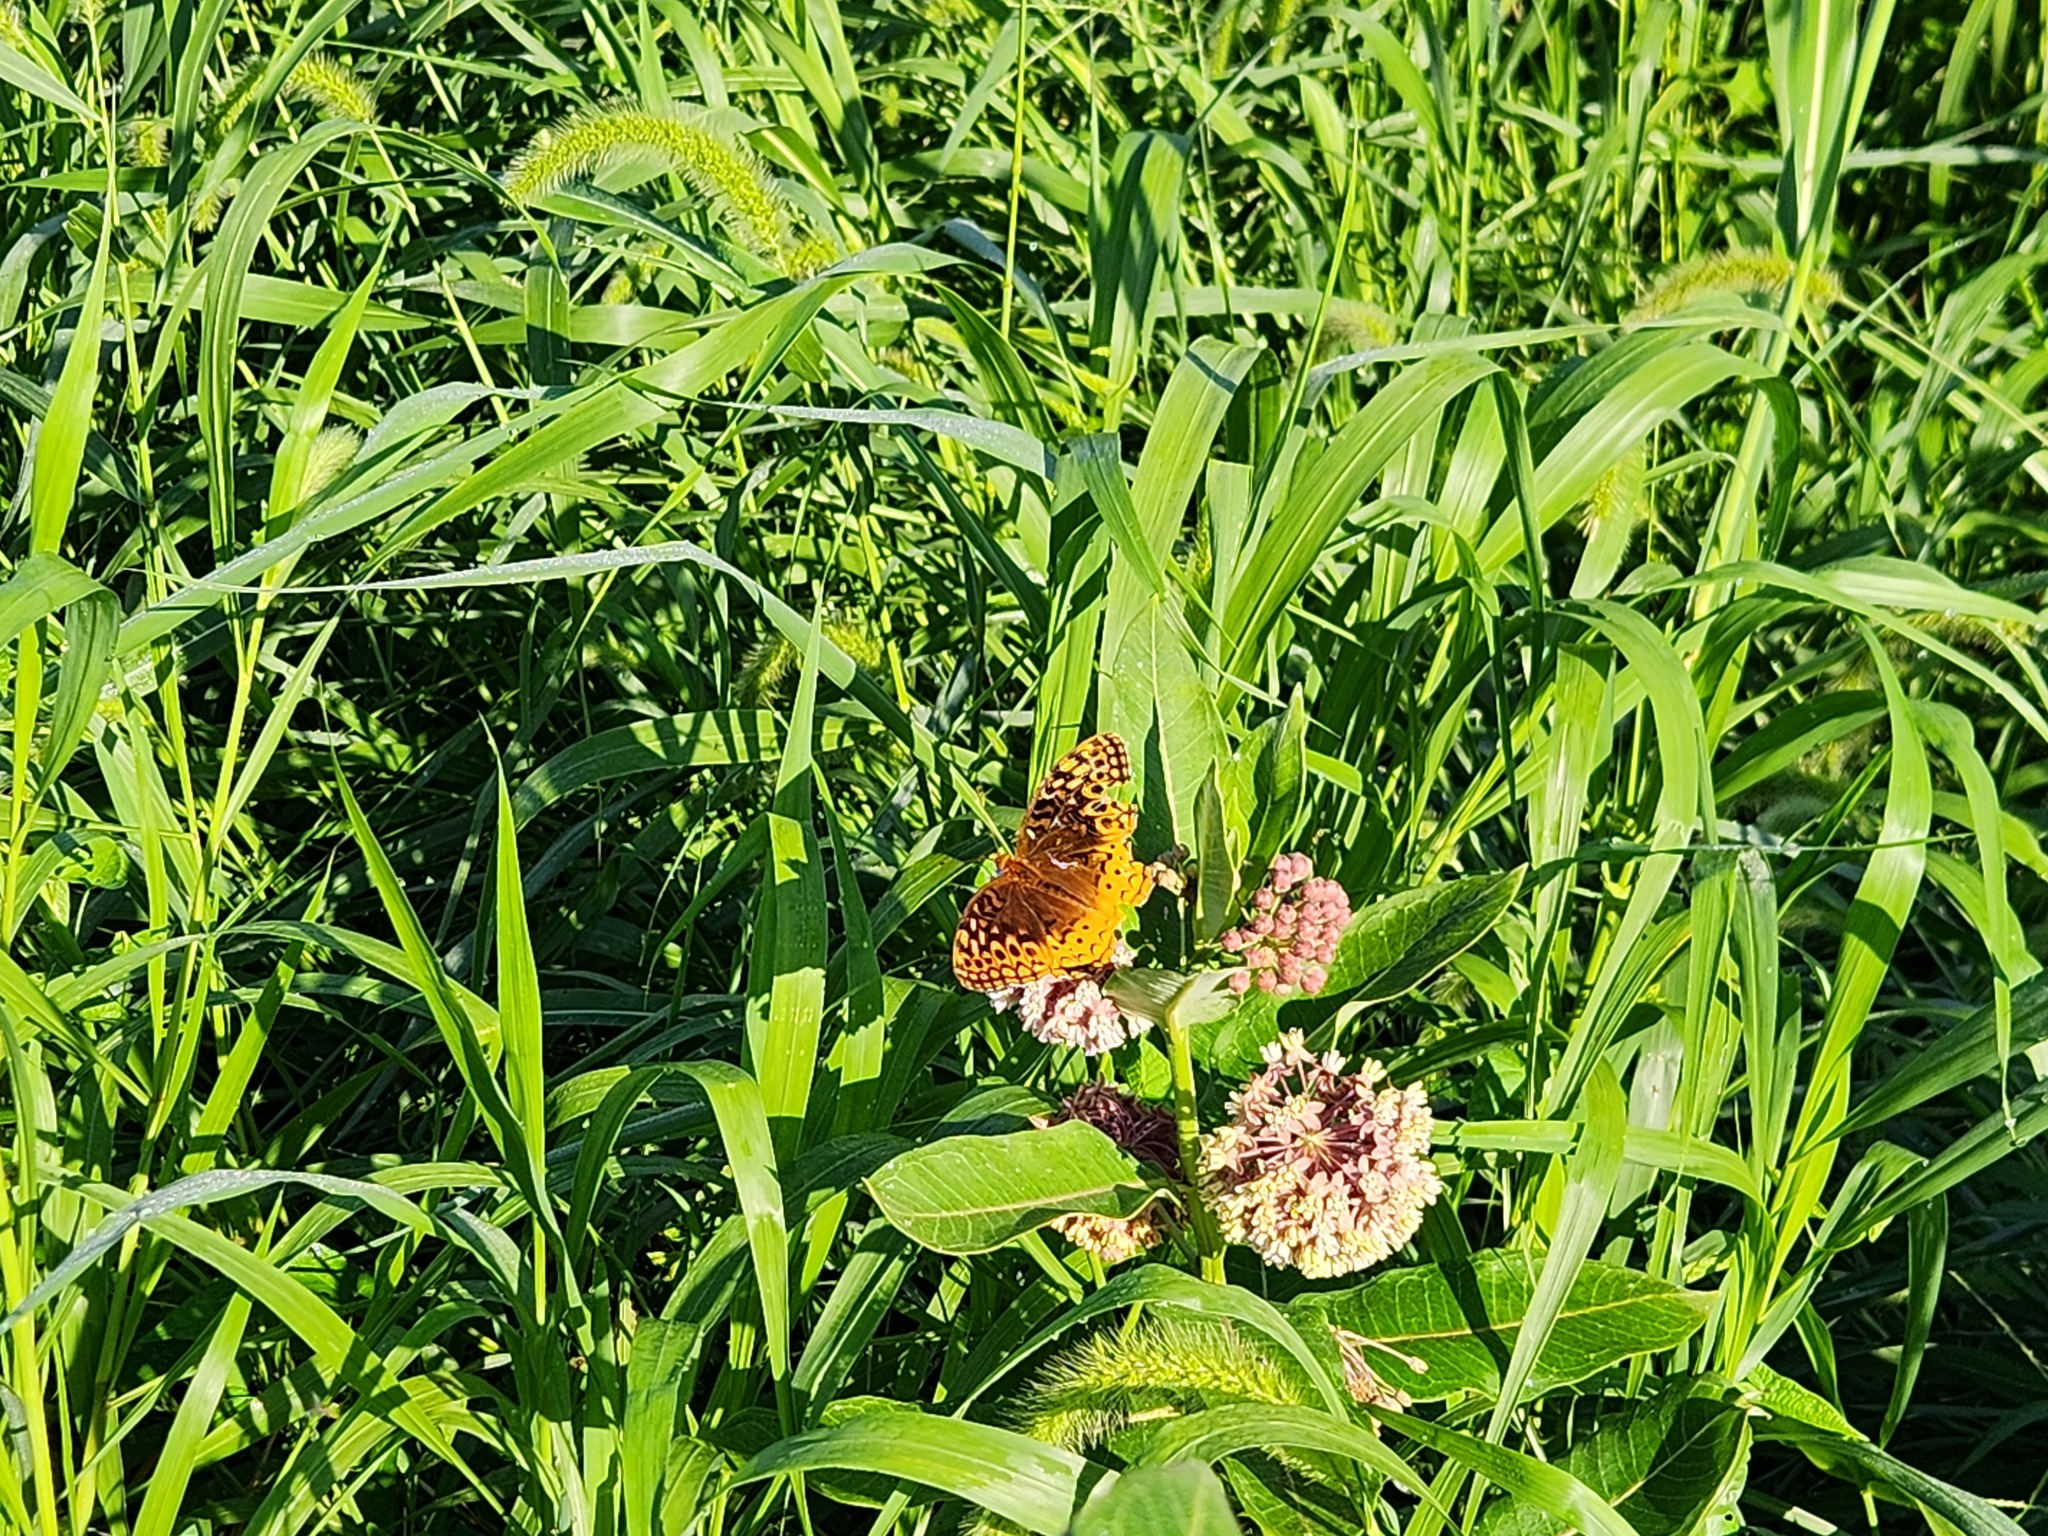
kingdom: Animalia
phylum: Arthropoda
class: Insecta
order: Lepidoptera
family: Nymphalidae
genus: Speyeria
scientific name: Speyeria cybele
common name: Great spangled fritillary
